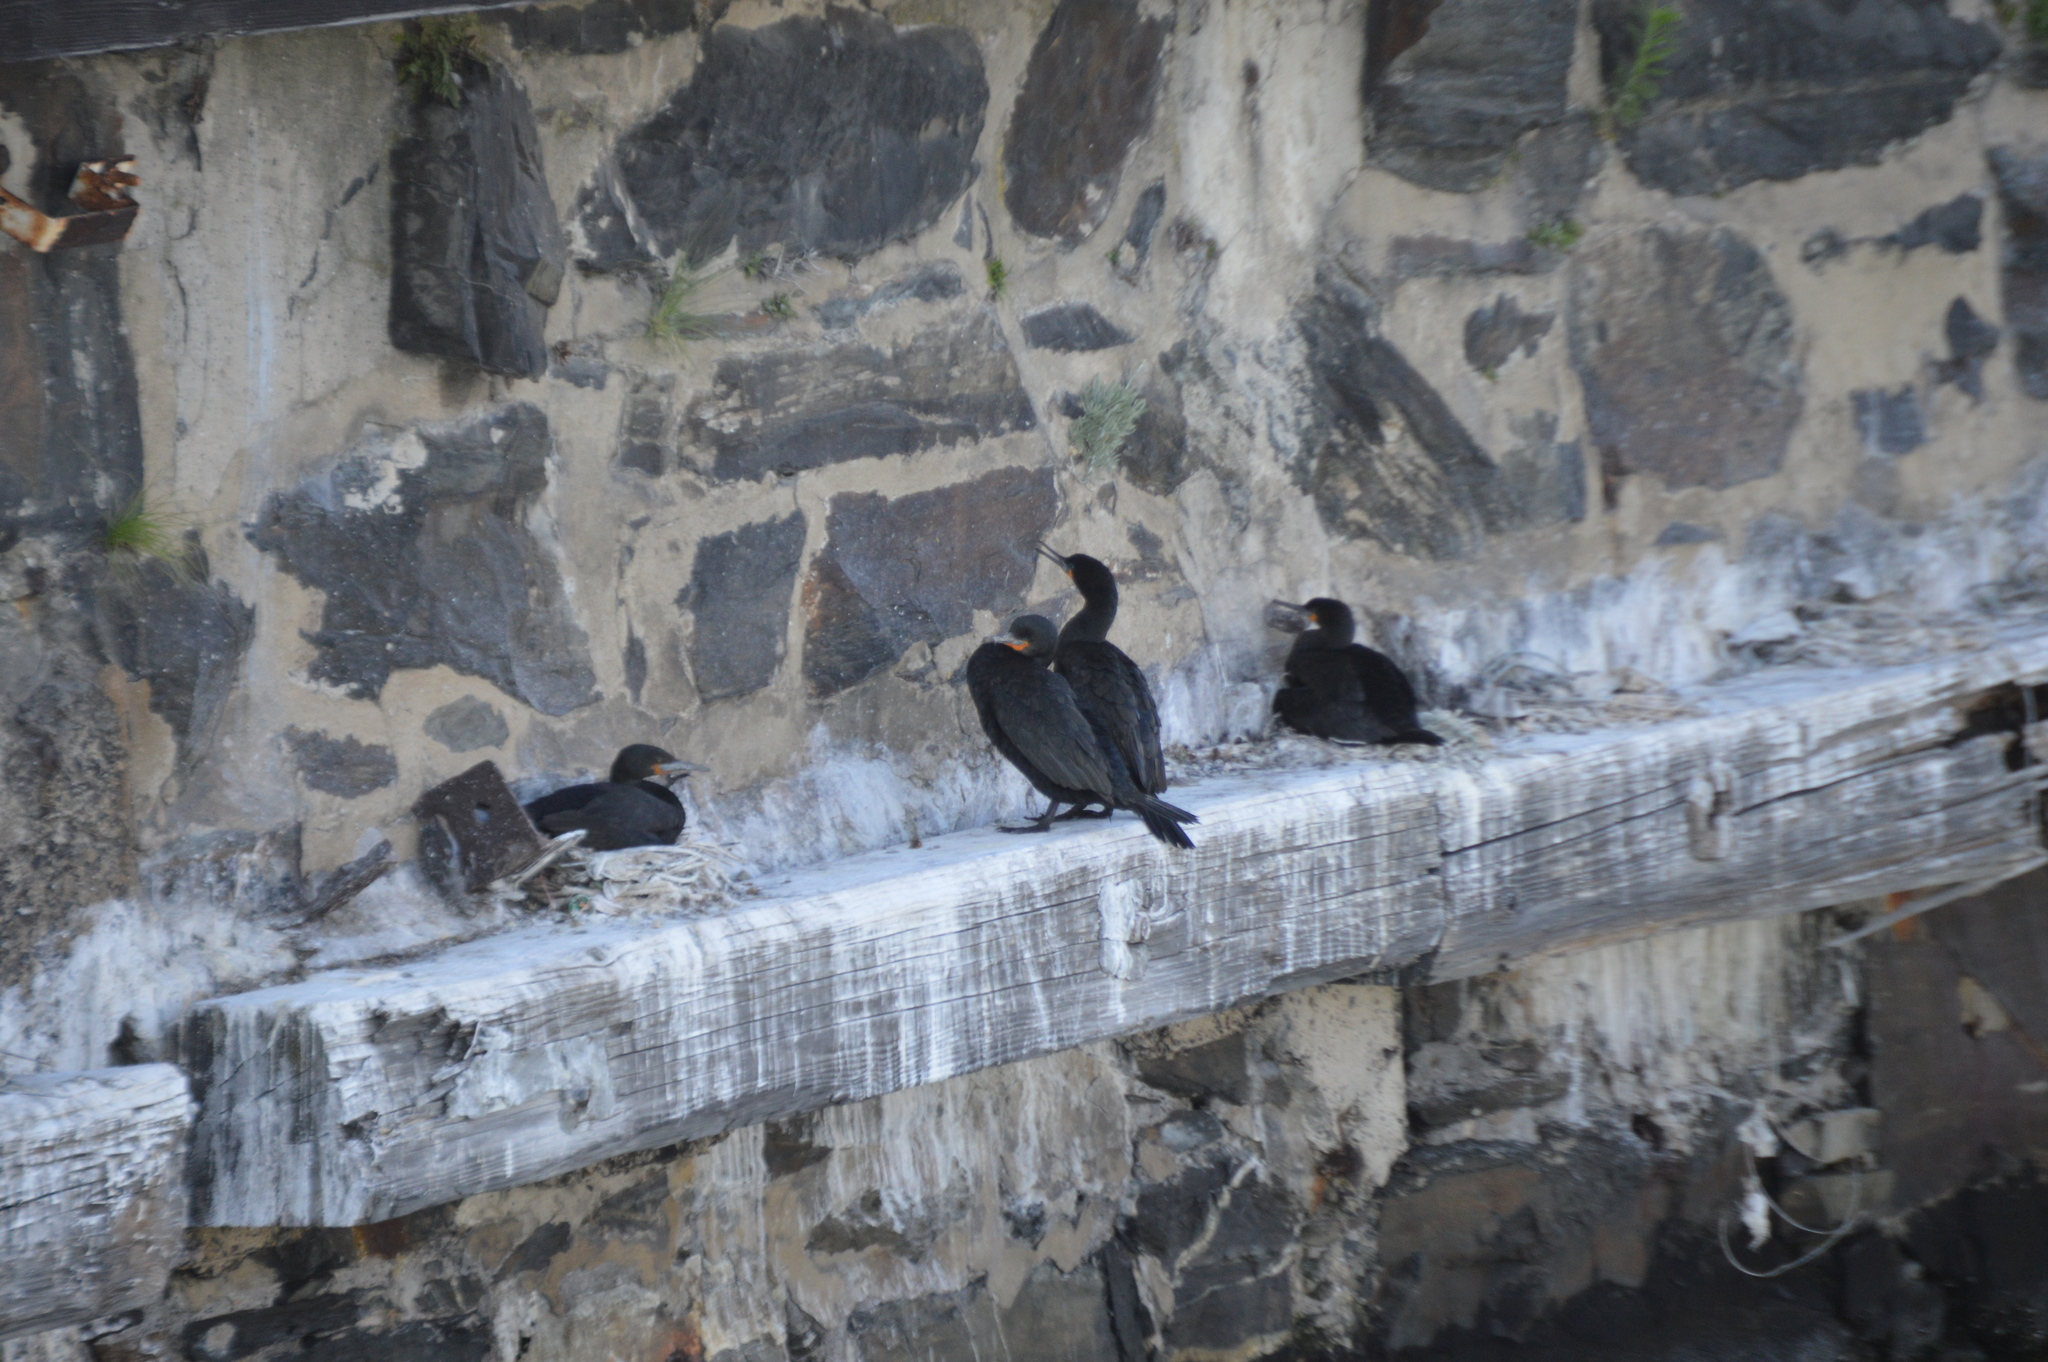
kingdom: Animalia
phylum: Chordata
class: Aves
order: Suliformes
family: Phalacrocoracidae
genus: Phalacrocorax
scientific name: Phalacrocorax capensis
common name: Cape cormorant
